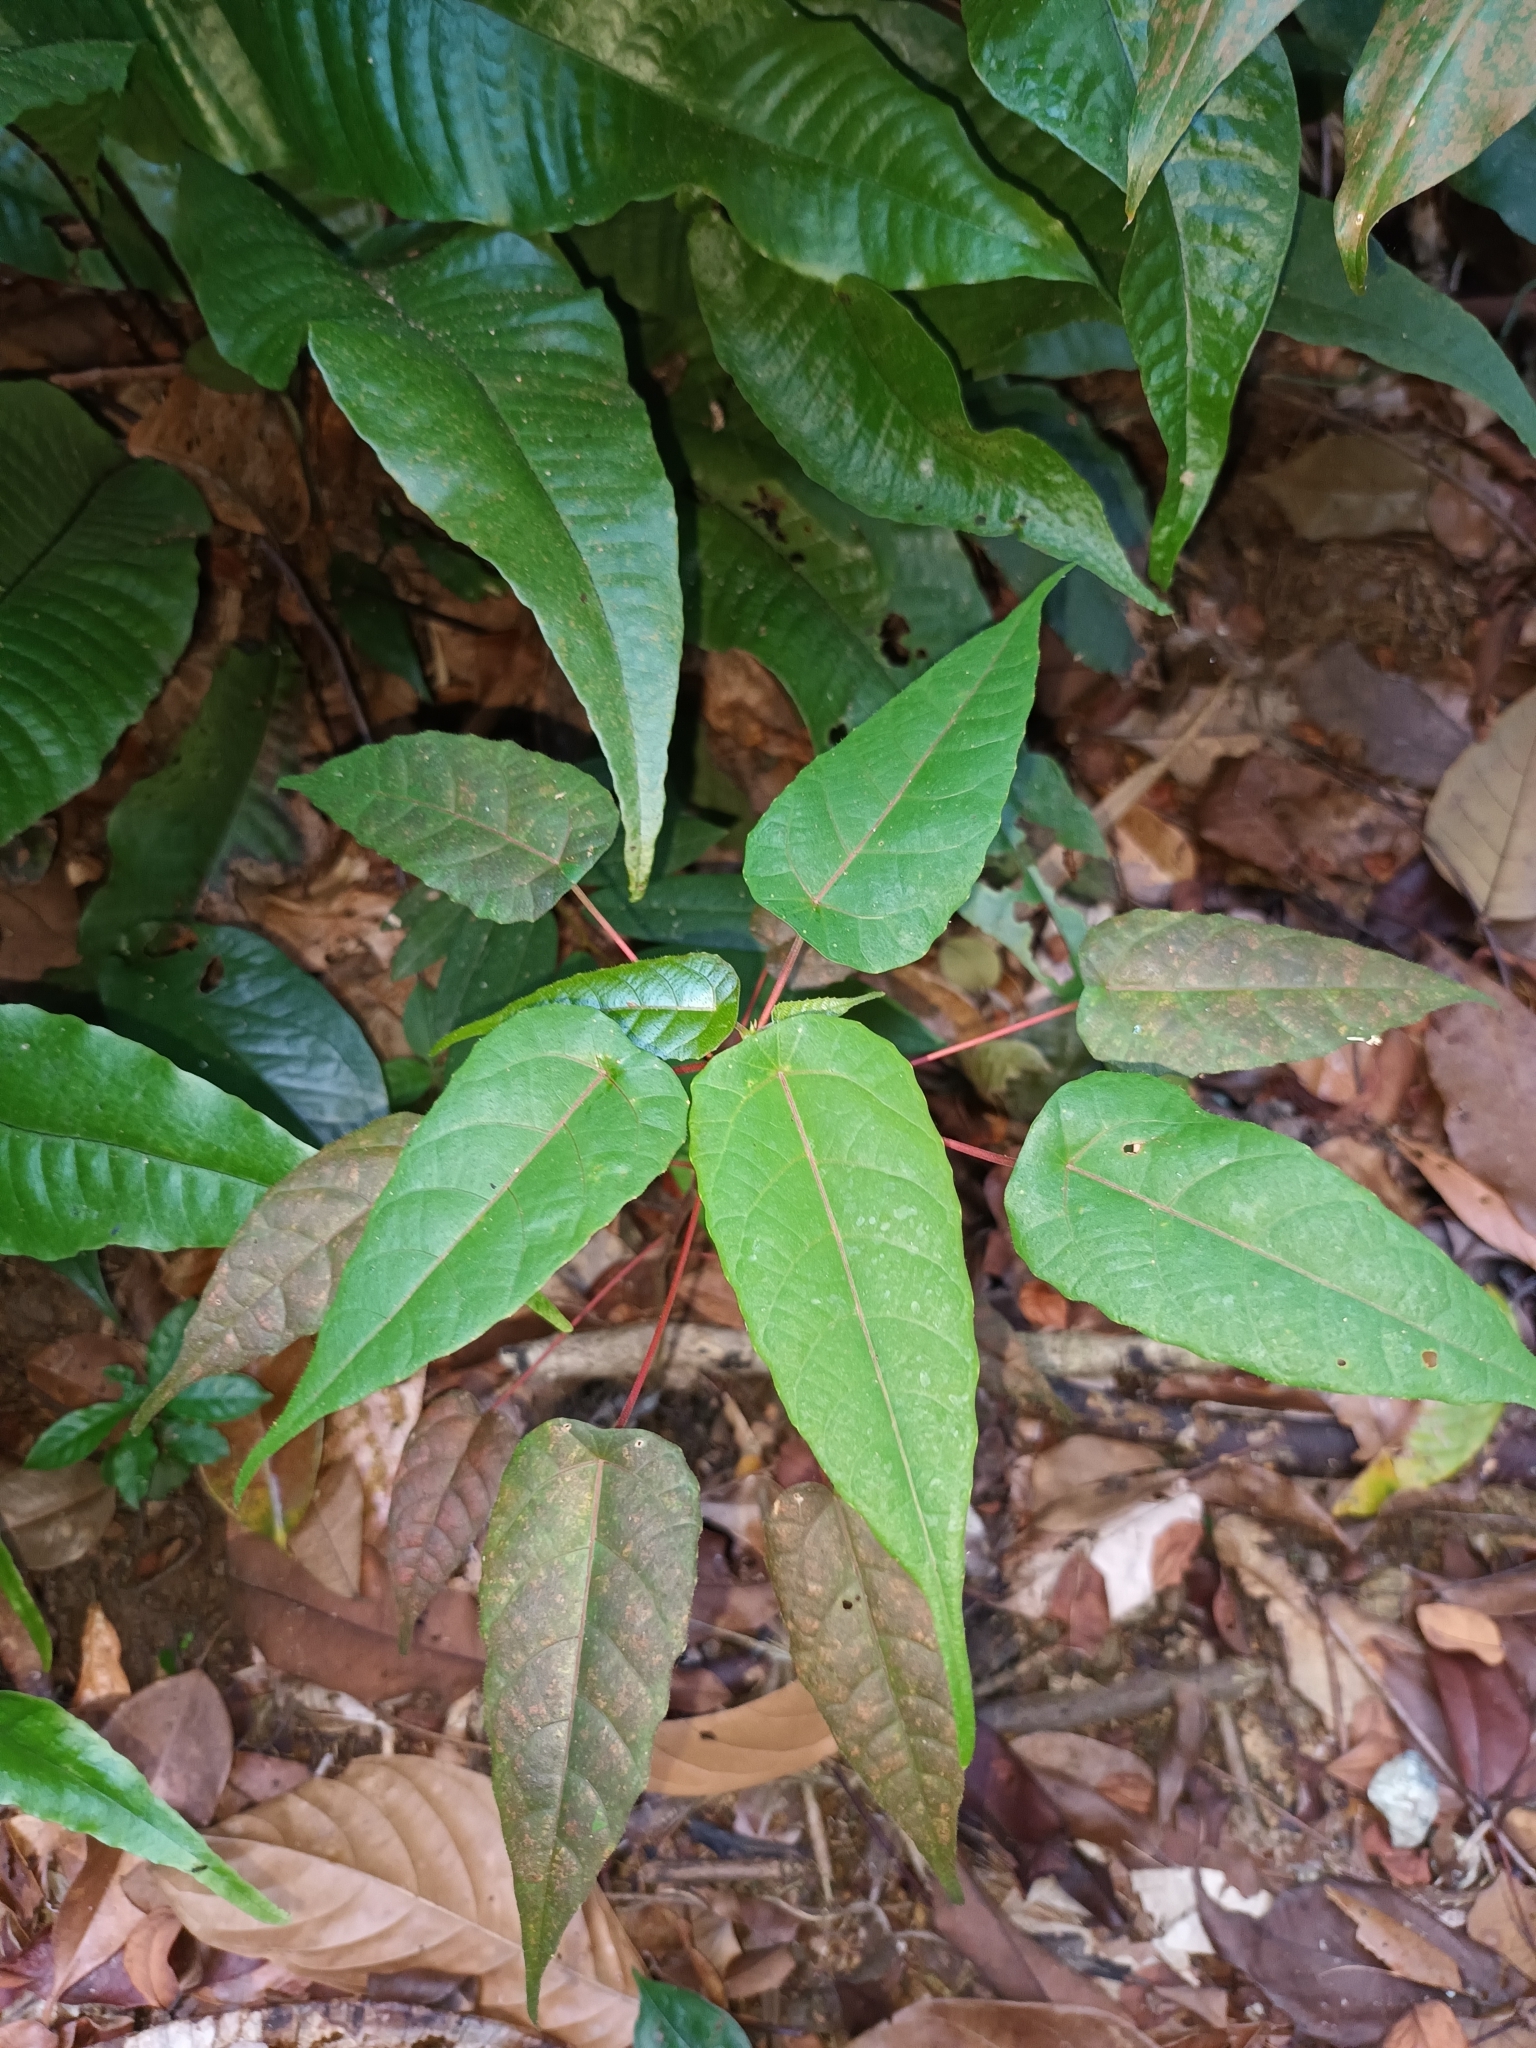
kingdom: Plantae
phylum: Tracheophyta
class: Magnoliopsida
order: Malpighiales
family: Euphorbiaceae
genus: Macaranga
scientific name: Macaranga hullettii
